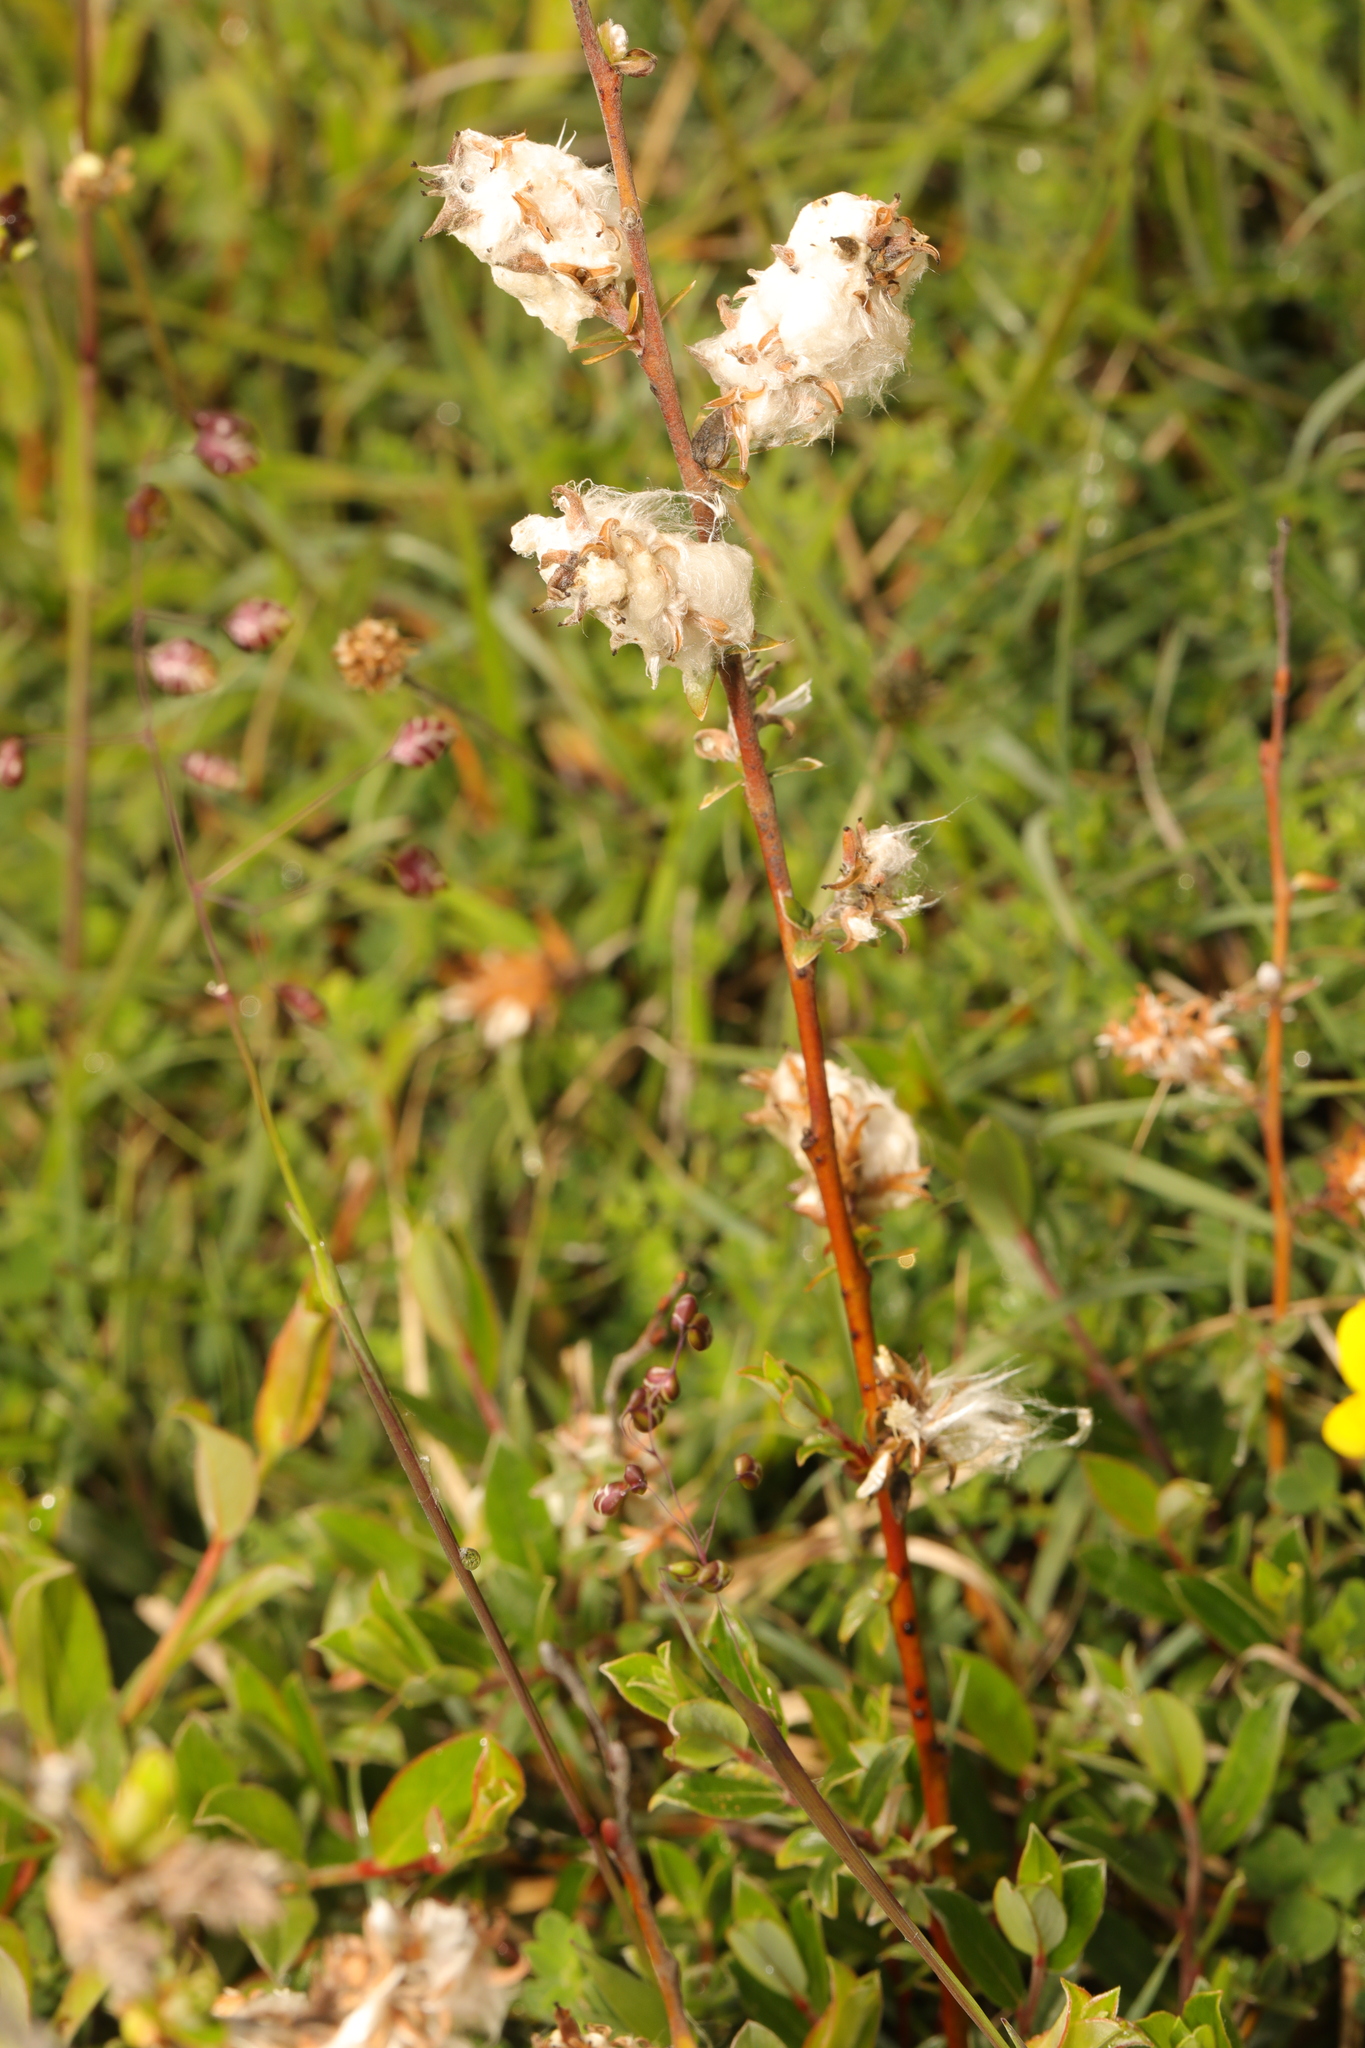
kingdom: Plantae
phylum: Tracheophyta
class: Magnoliopsida
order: Malpighiales
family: Salicaceae
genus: Salix
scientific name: Salix repens
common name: Creeping willow
